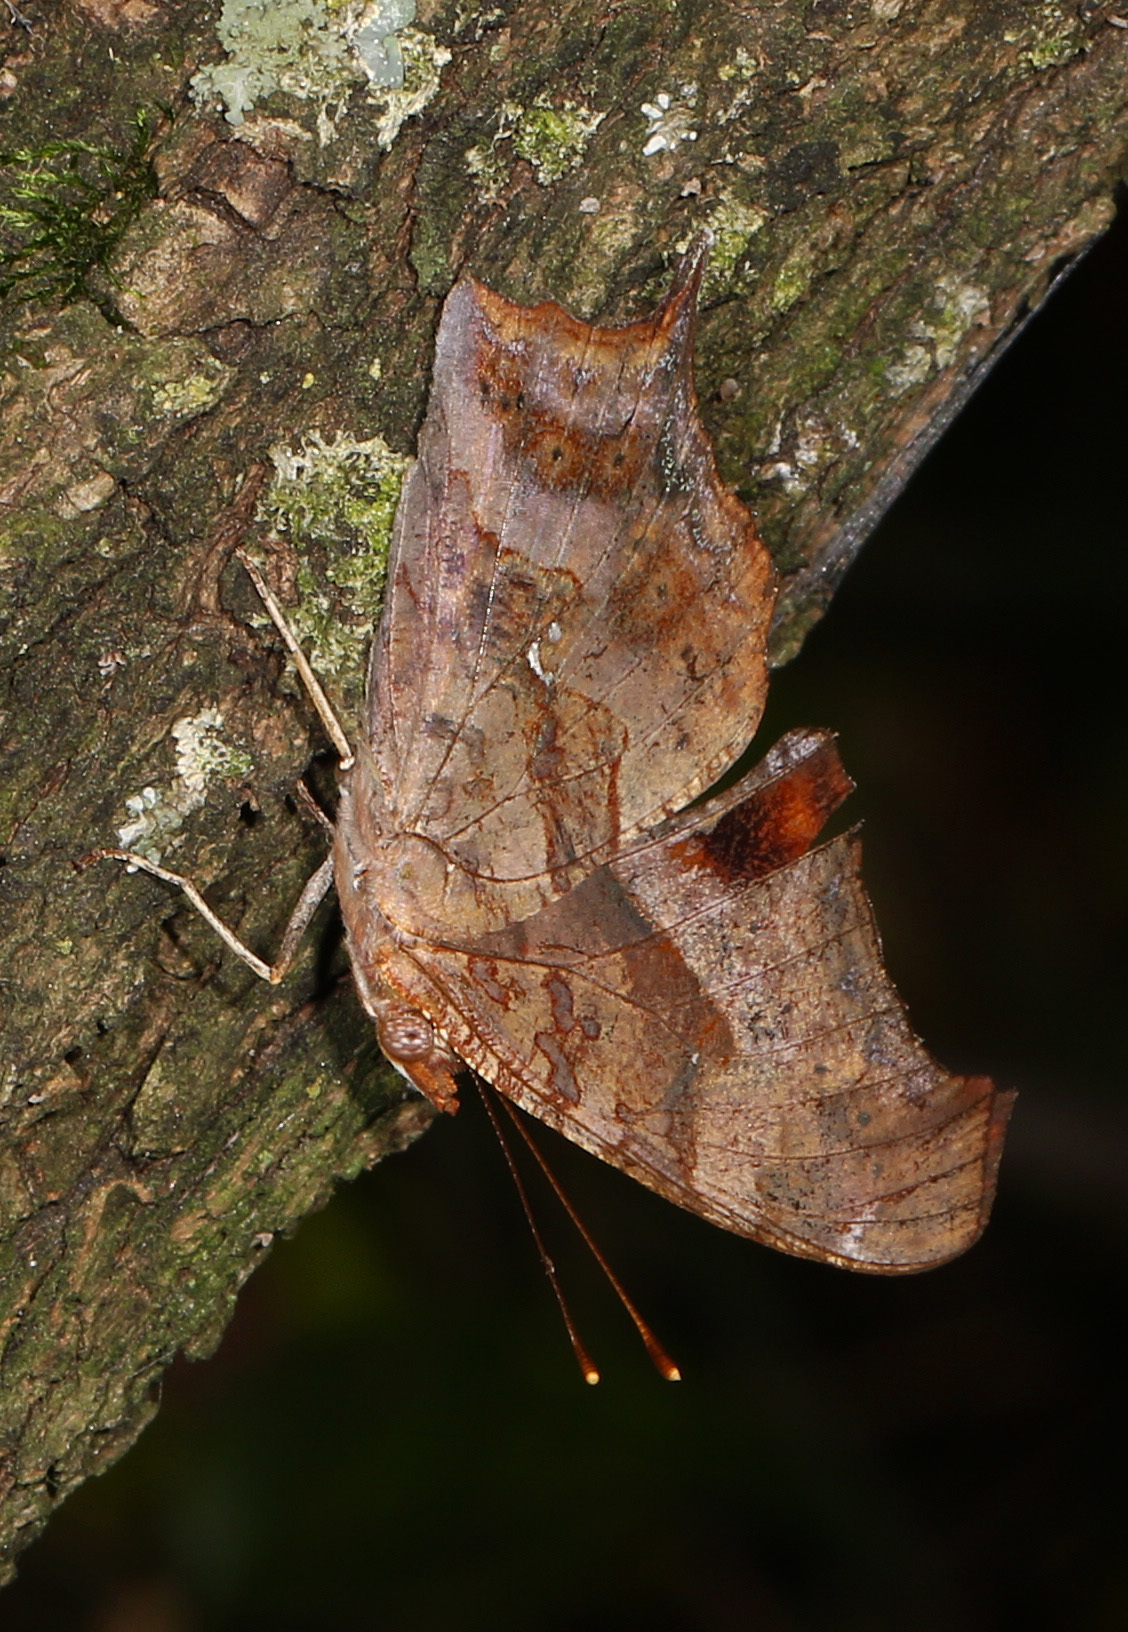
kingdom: Animalia
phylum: Arthropoda
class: Insecta
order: Lepidoptera
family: Nymphalidae
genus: Polygonia
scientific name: Polygonia interrogationis
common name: Question mark
